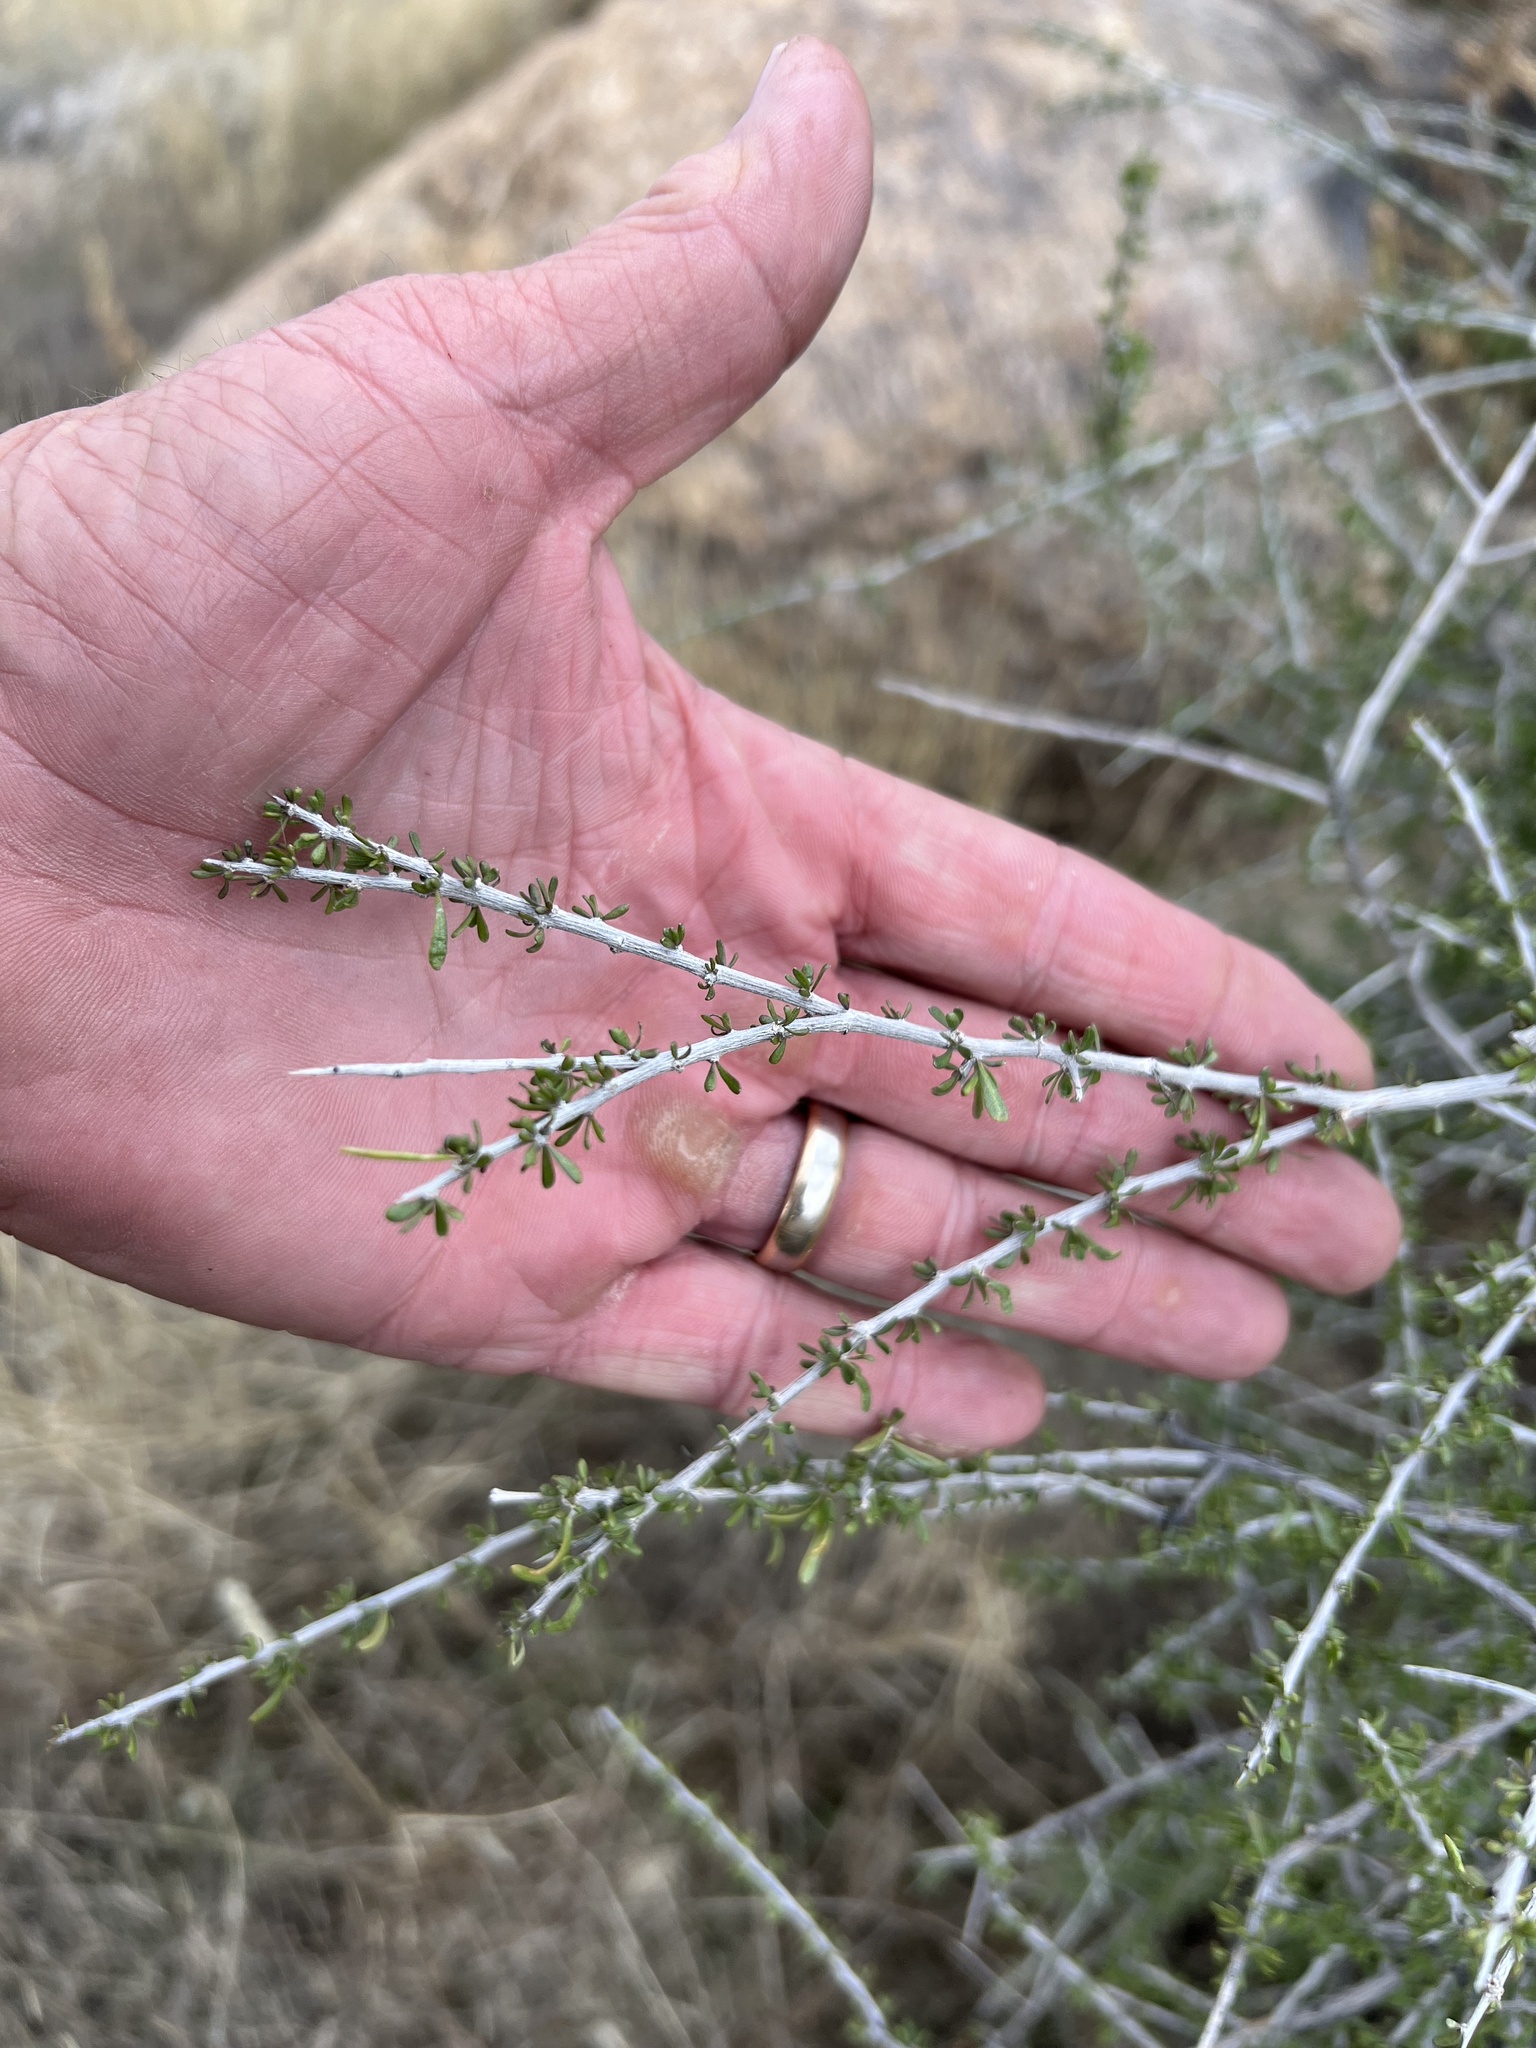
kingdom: Plantae
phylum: Tracheophyta
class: Magnoliopsida
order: Solanales
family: Solanaceae
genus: Lycium
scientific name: Lycium andersonii
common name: Water-jacket
